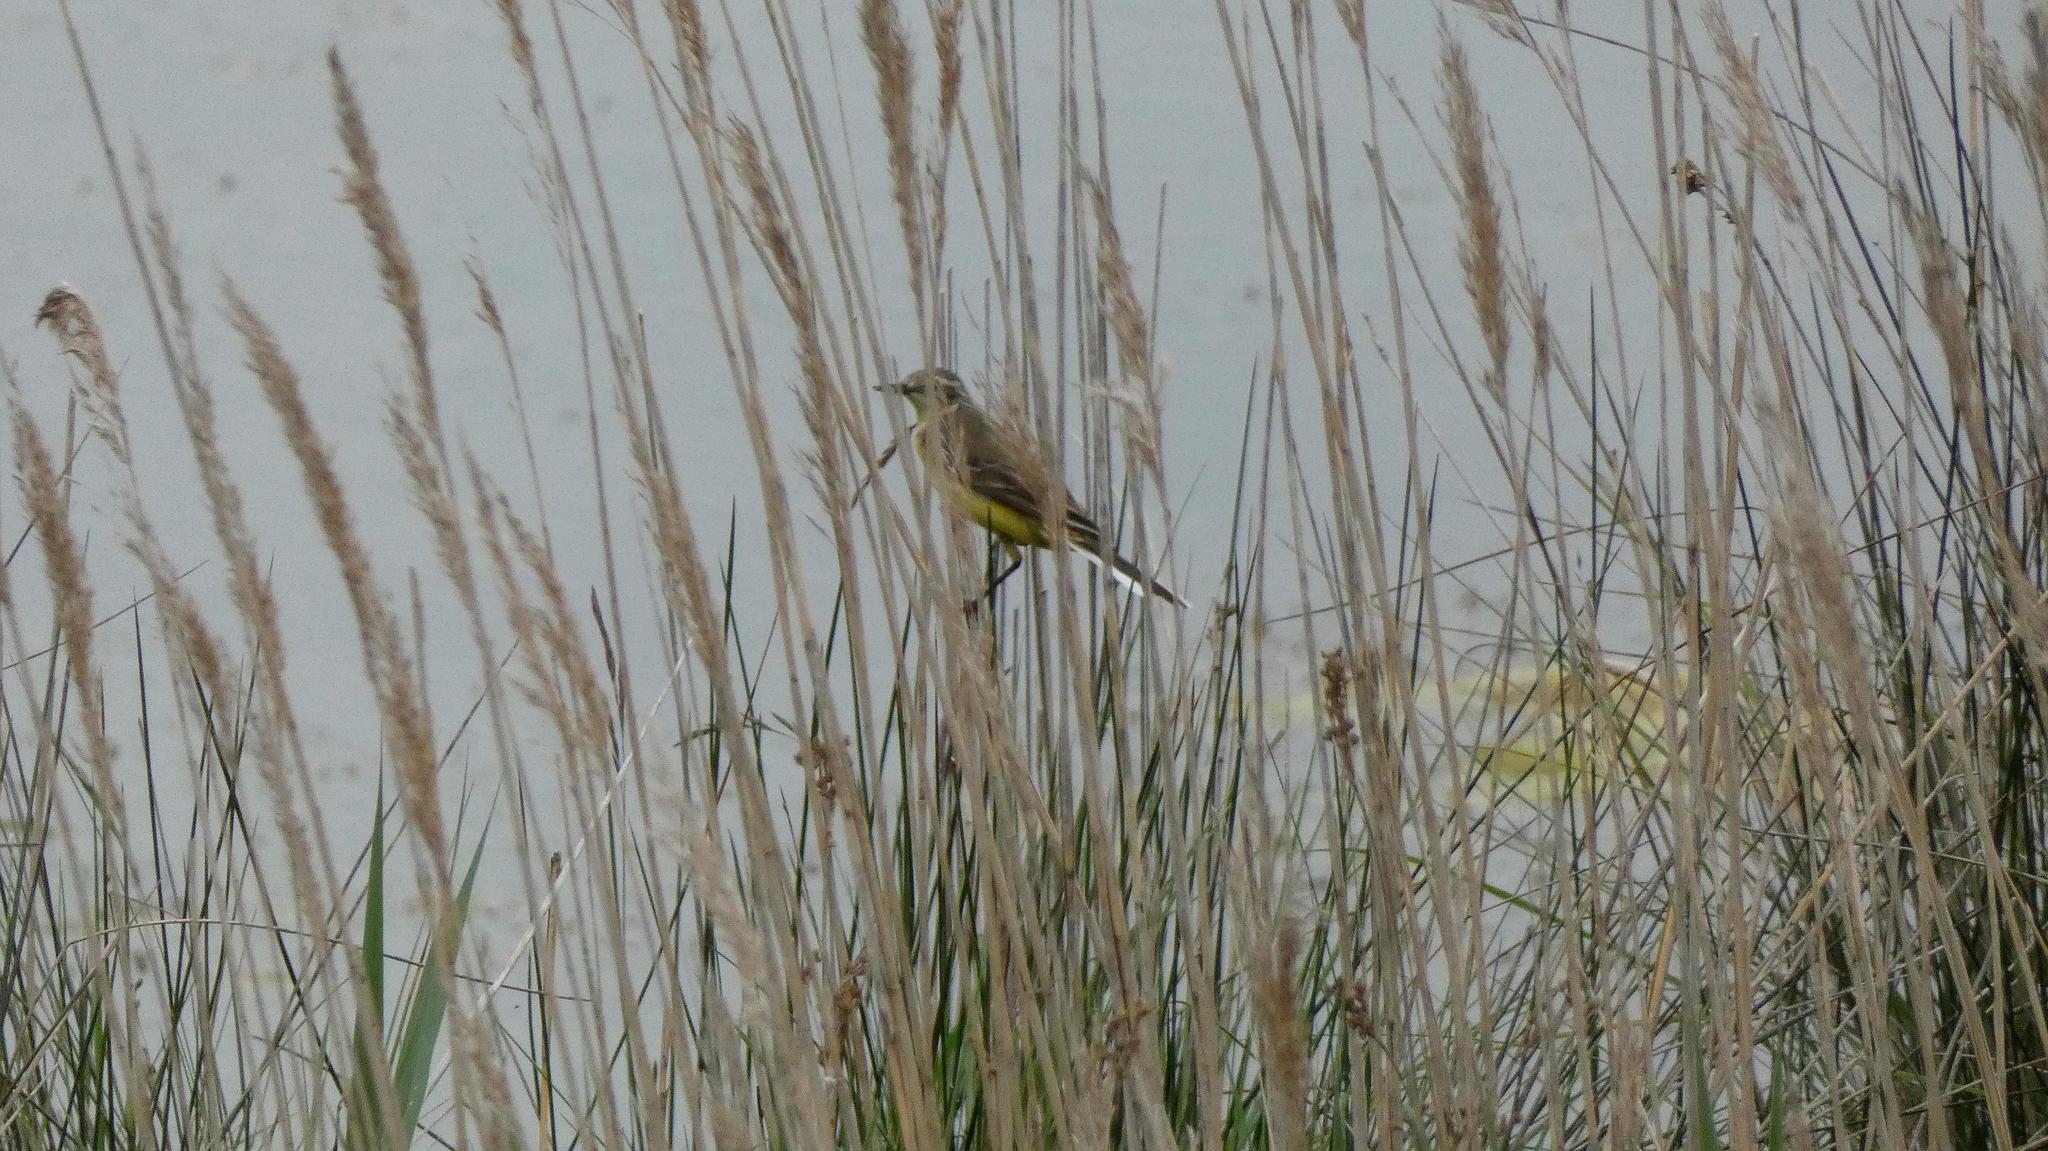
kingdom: Animalia
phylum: Chordata
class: Aves
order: Passeriformes
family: Motacillidae
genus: Motacilla
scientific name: Motacilla flava
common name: Western yellow wagtail
